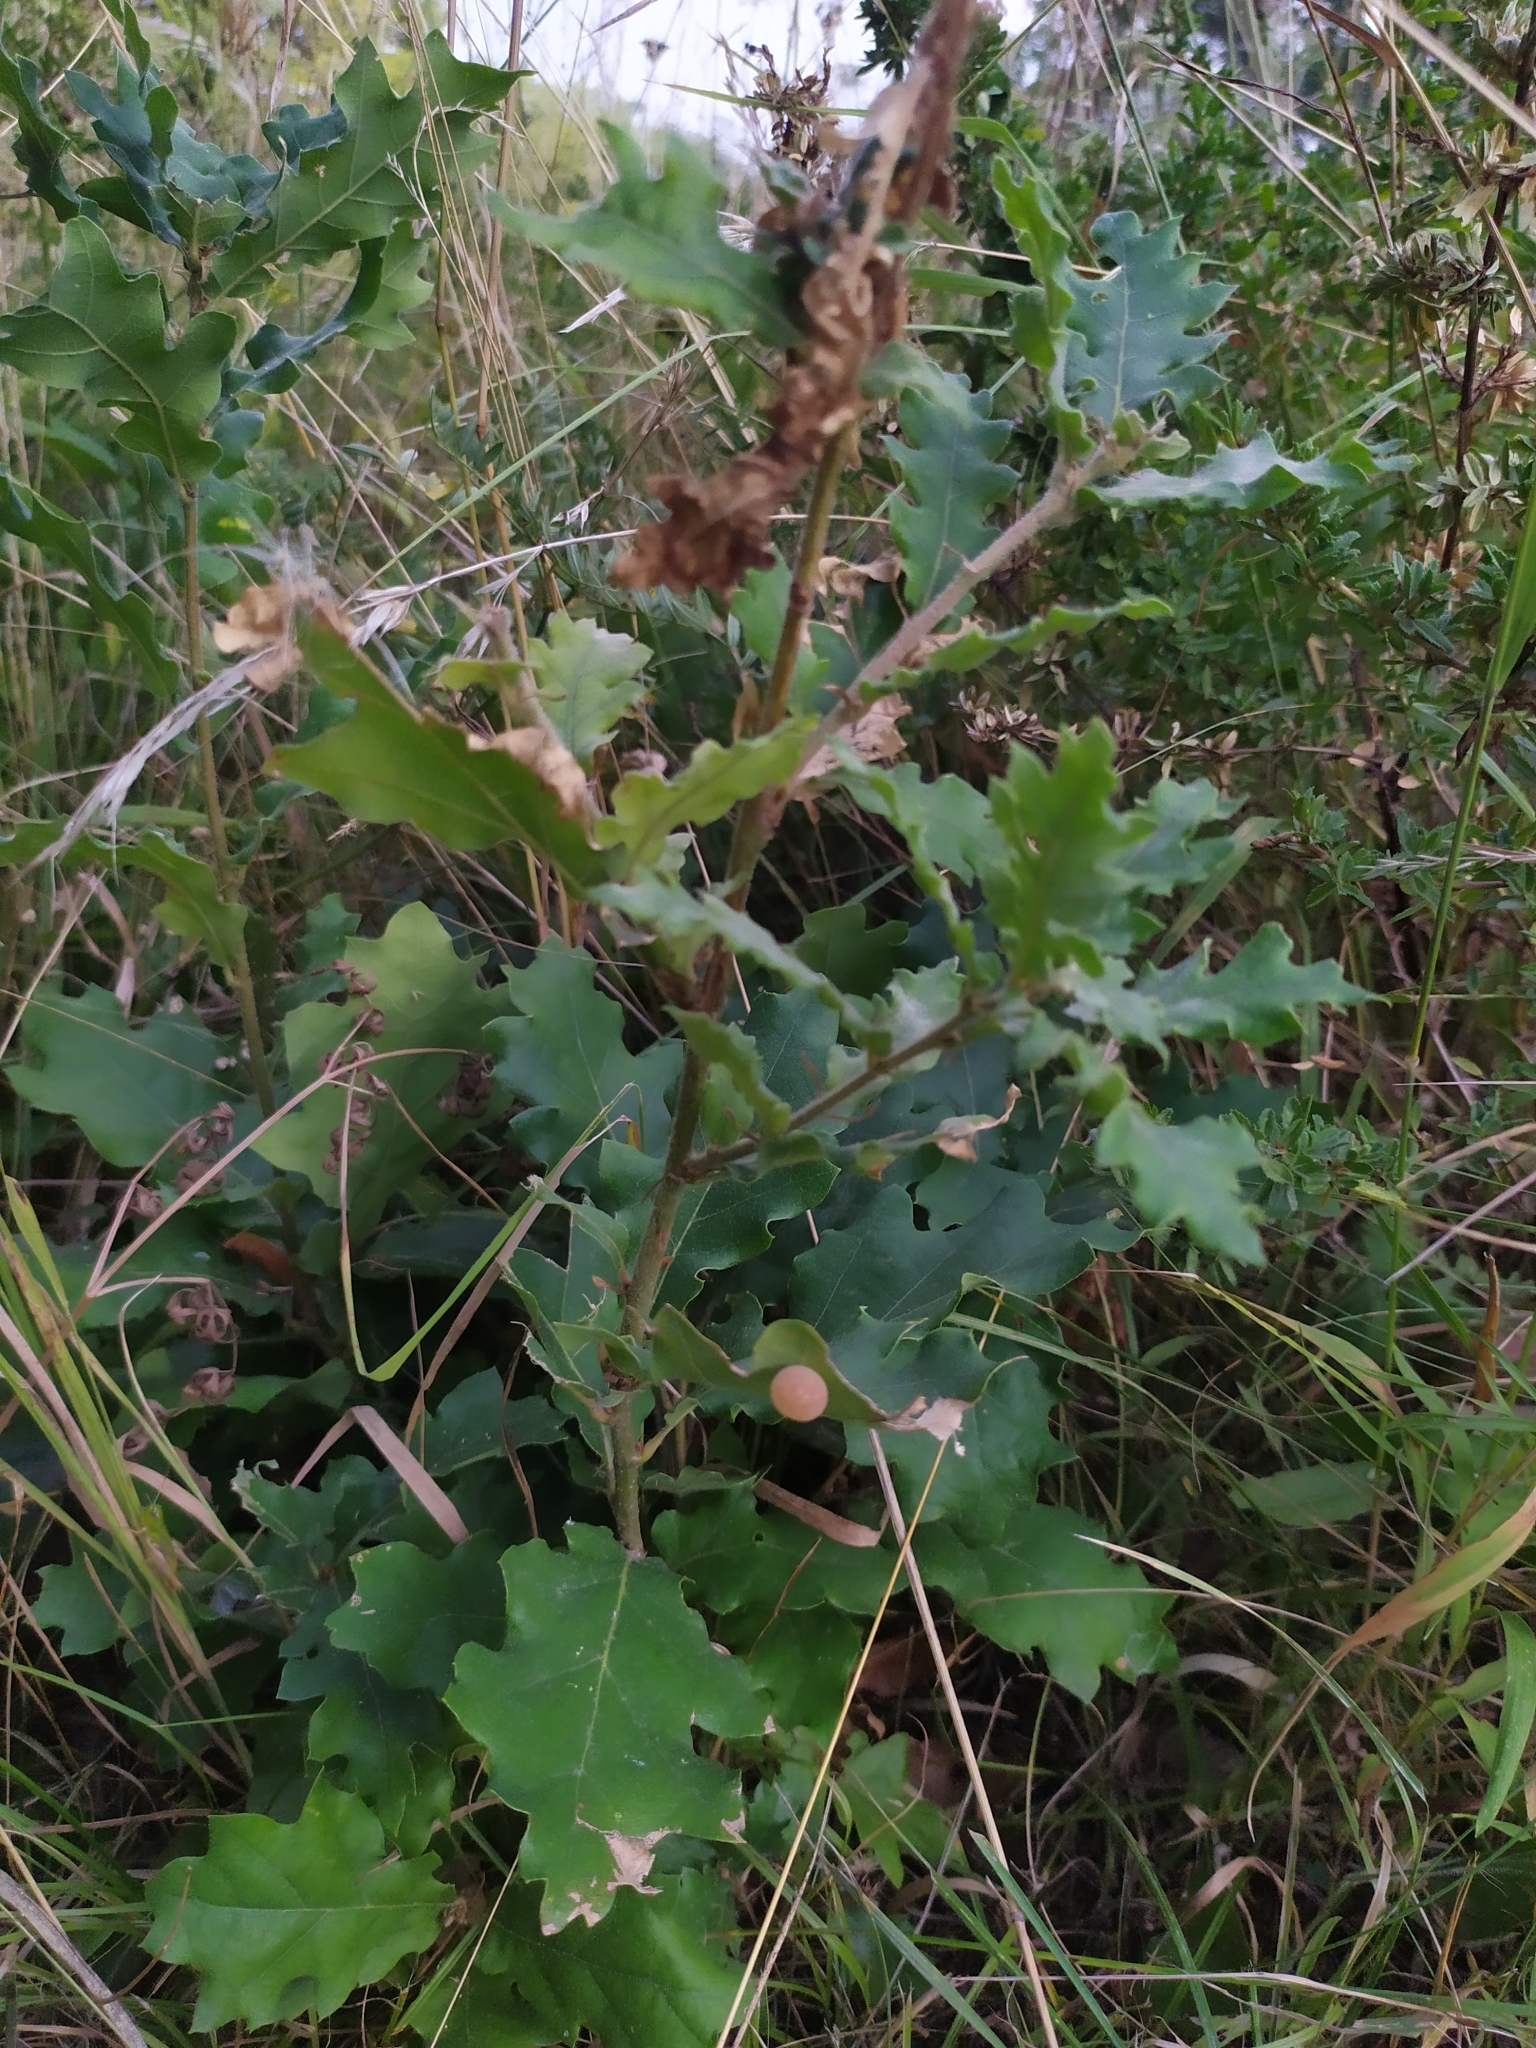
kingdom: Animalia
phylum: Arthropoda
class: Insecta
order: Hymenoptera
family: Cynipidae
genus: Cynips
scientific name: Cynips quercus
